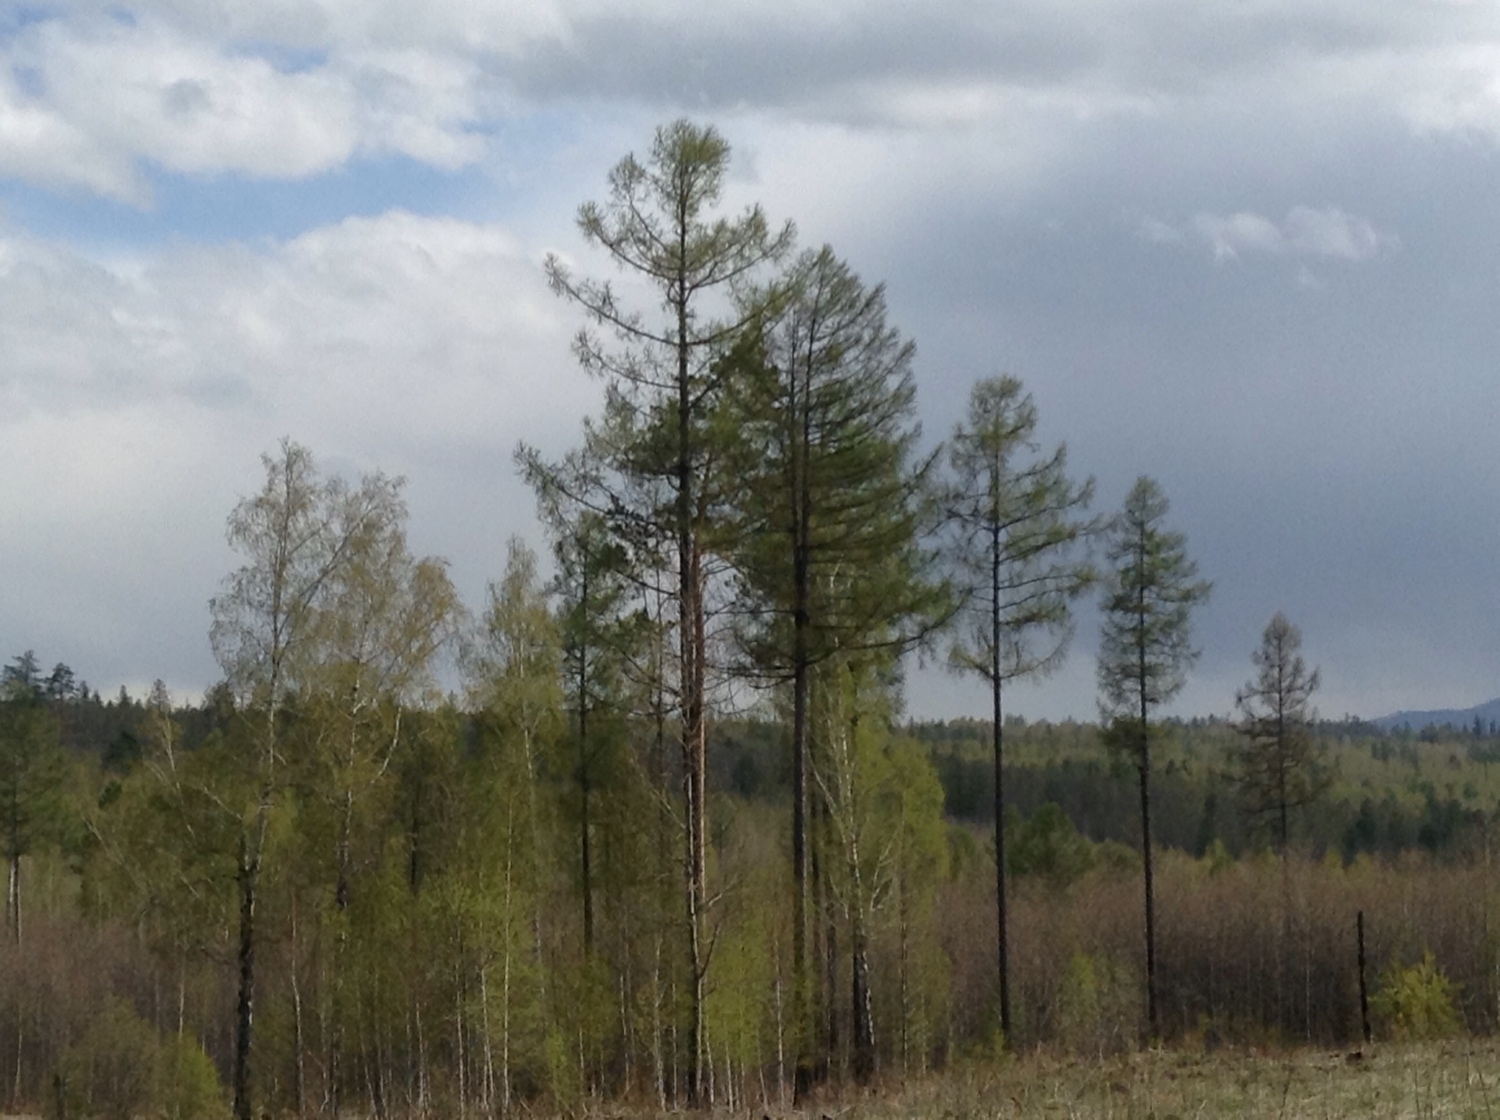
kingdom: Plantae
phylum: Tracheophyta
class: Pinopsida
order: Pinales
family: Pinaceae
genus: Larix
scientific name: Larix sibirica
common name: Siberian larch
